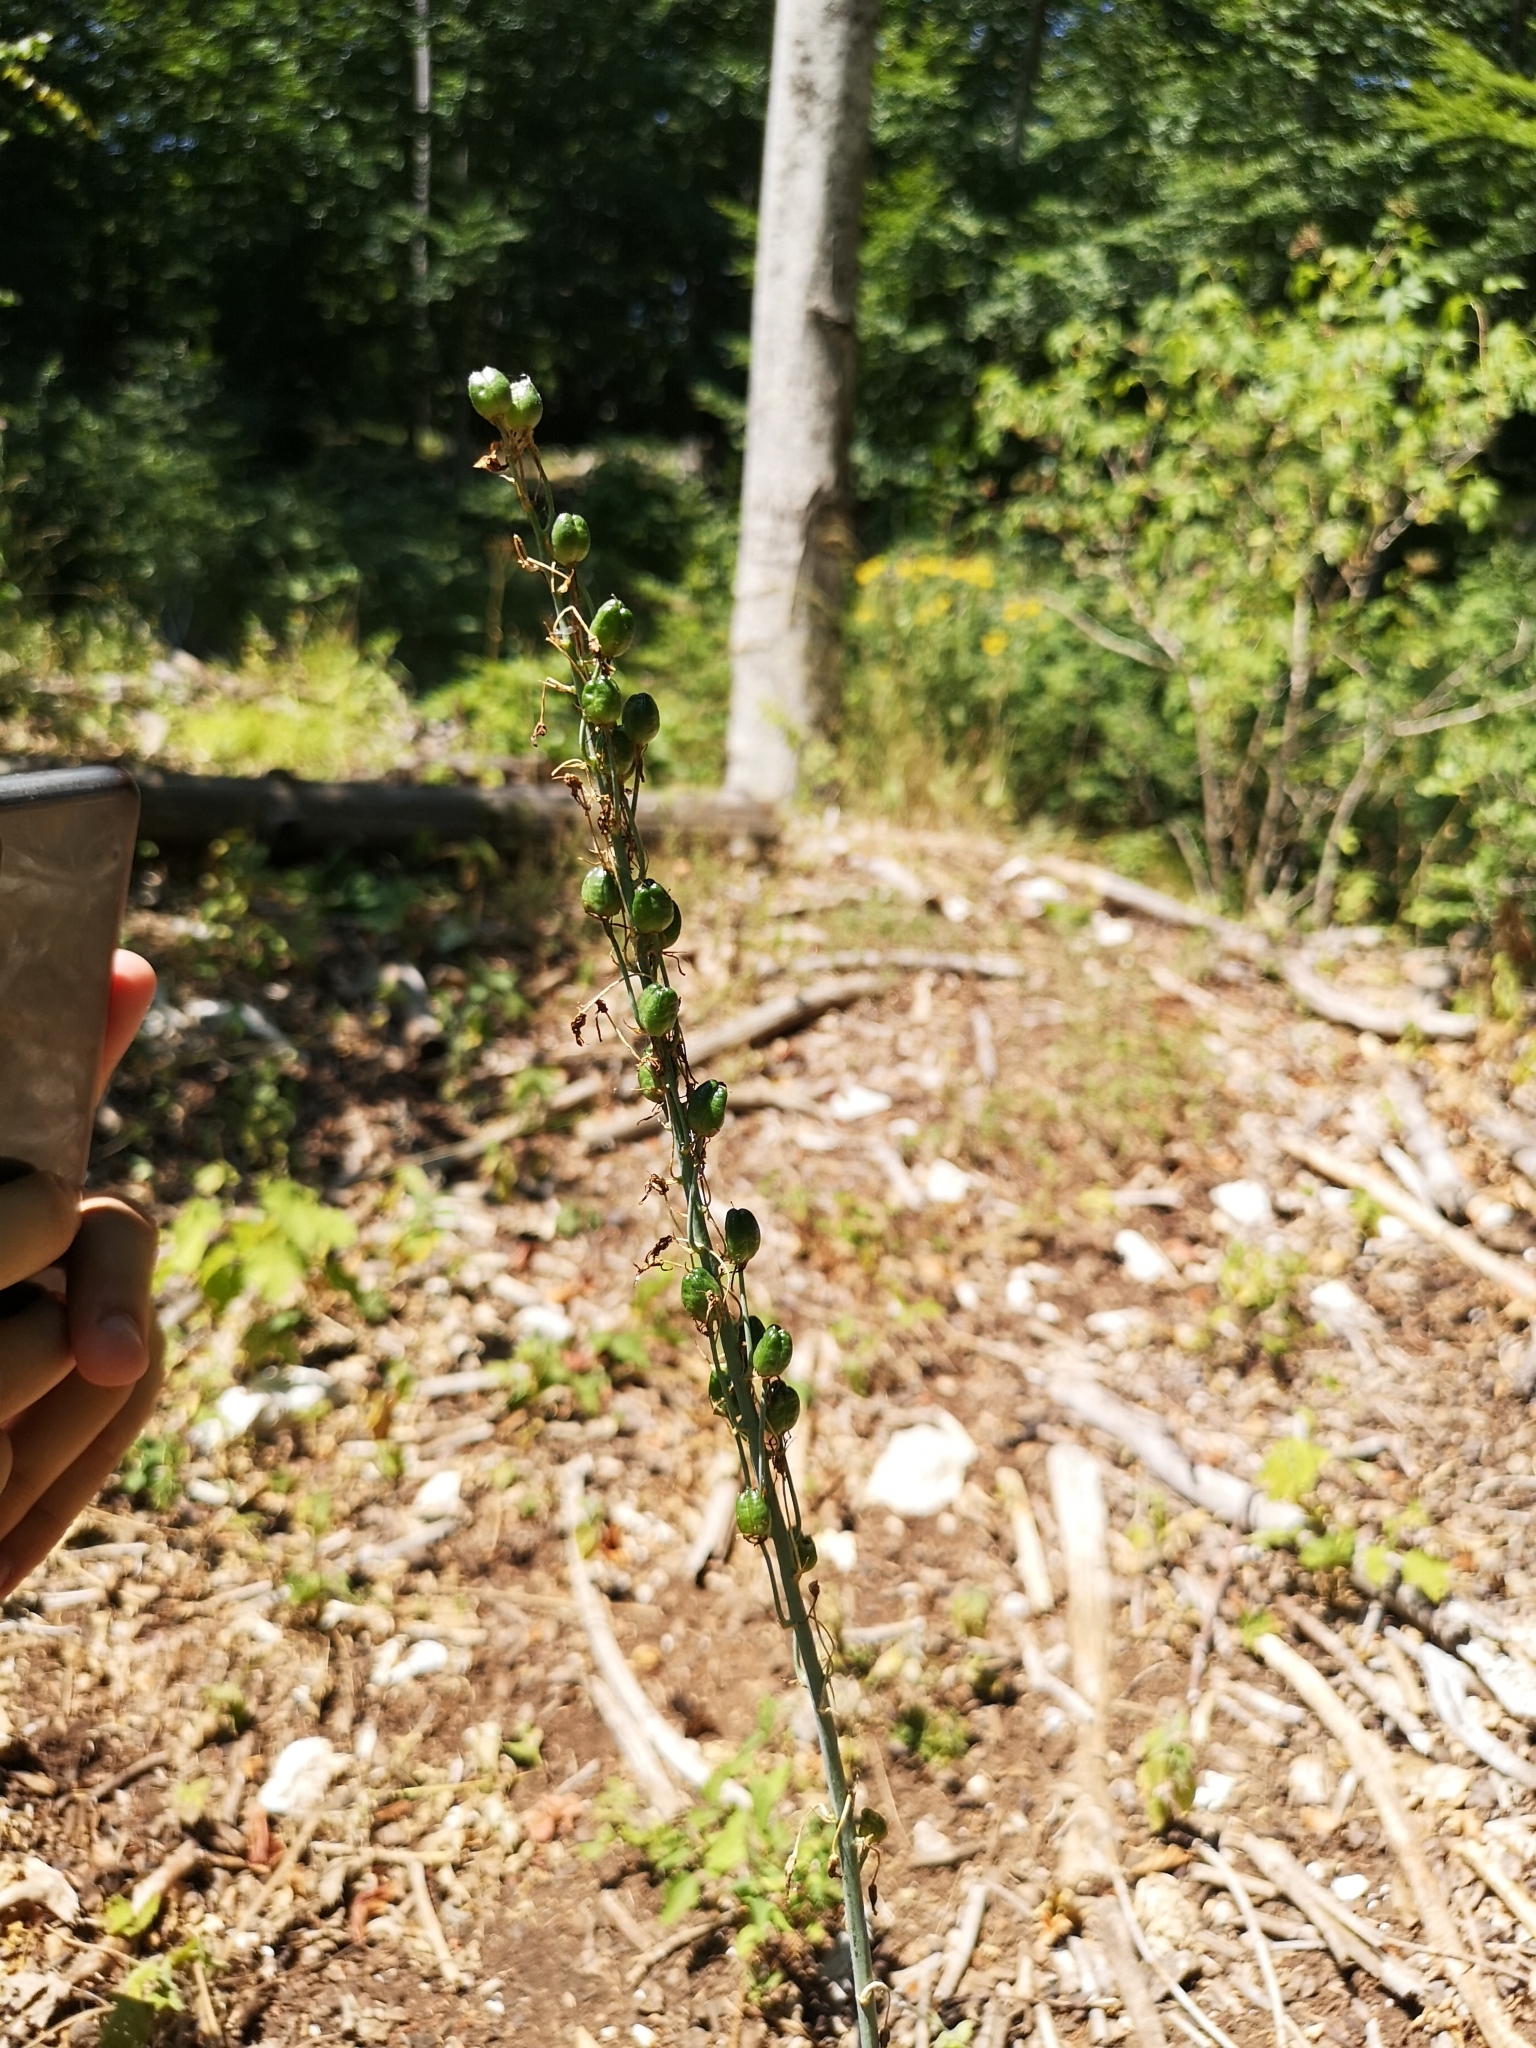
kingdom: Plantae
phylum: Tracheophyta
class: Liliopsida
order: Asparagales
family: Asparagaceae
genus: Anthericum
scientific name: Anthericum liliago
